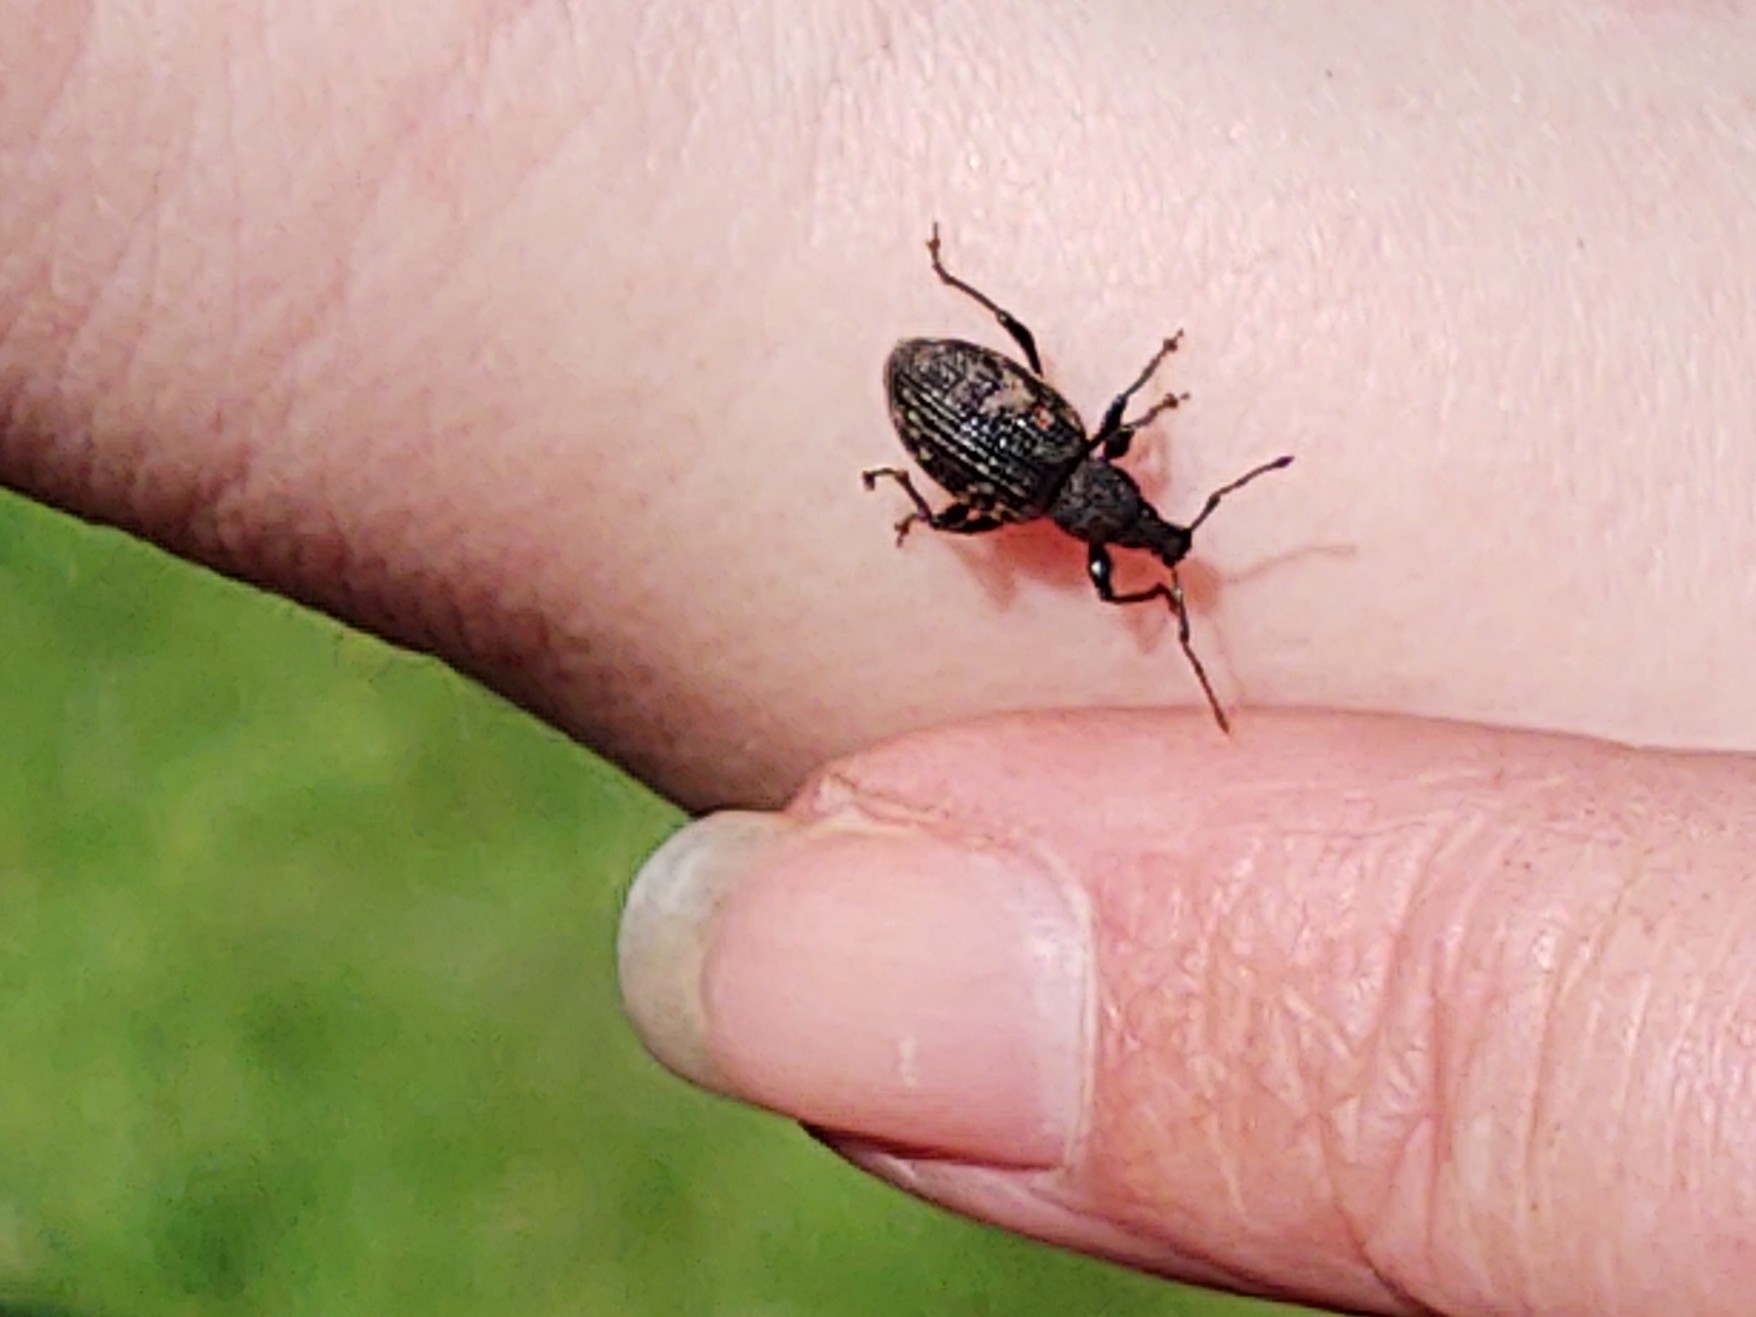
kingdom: Animalia
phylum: Arthropoda
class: Insecta
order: Coleoptera
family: Curculionidae
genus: Otiorhynchus
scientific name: Otiorhynchus sulcatus
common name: Black vine weevil
